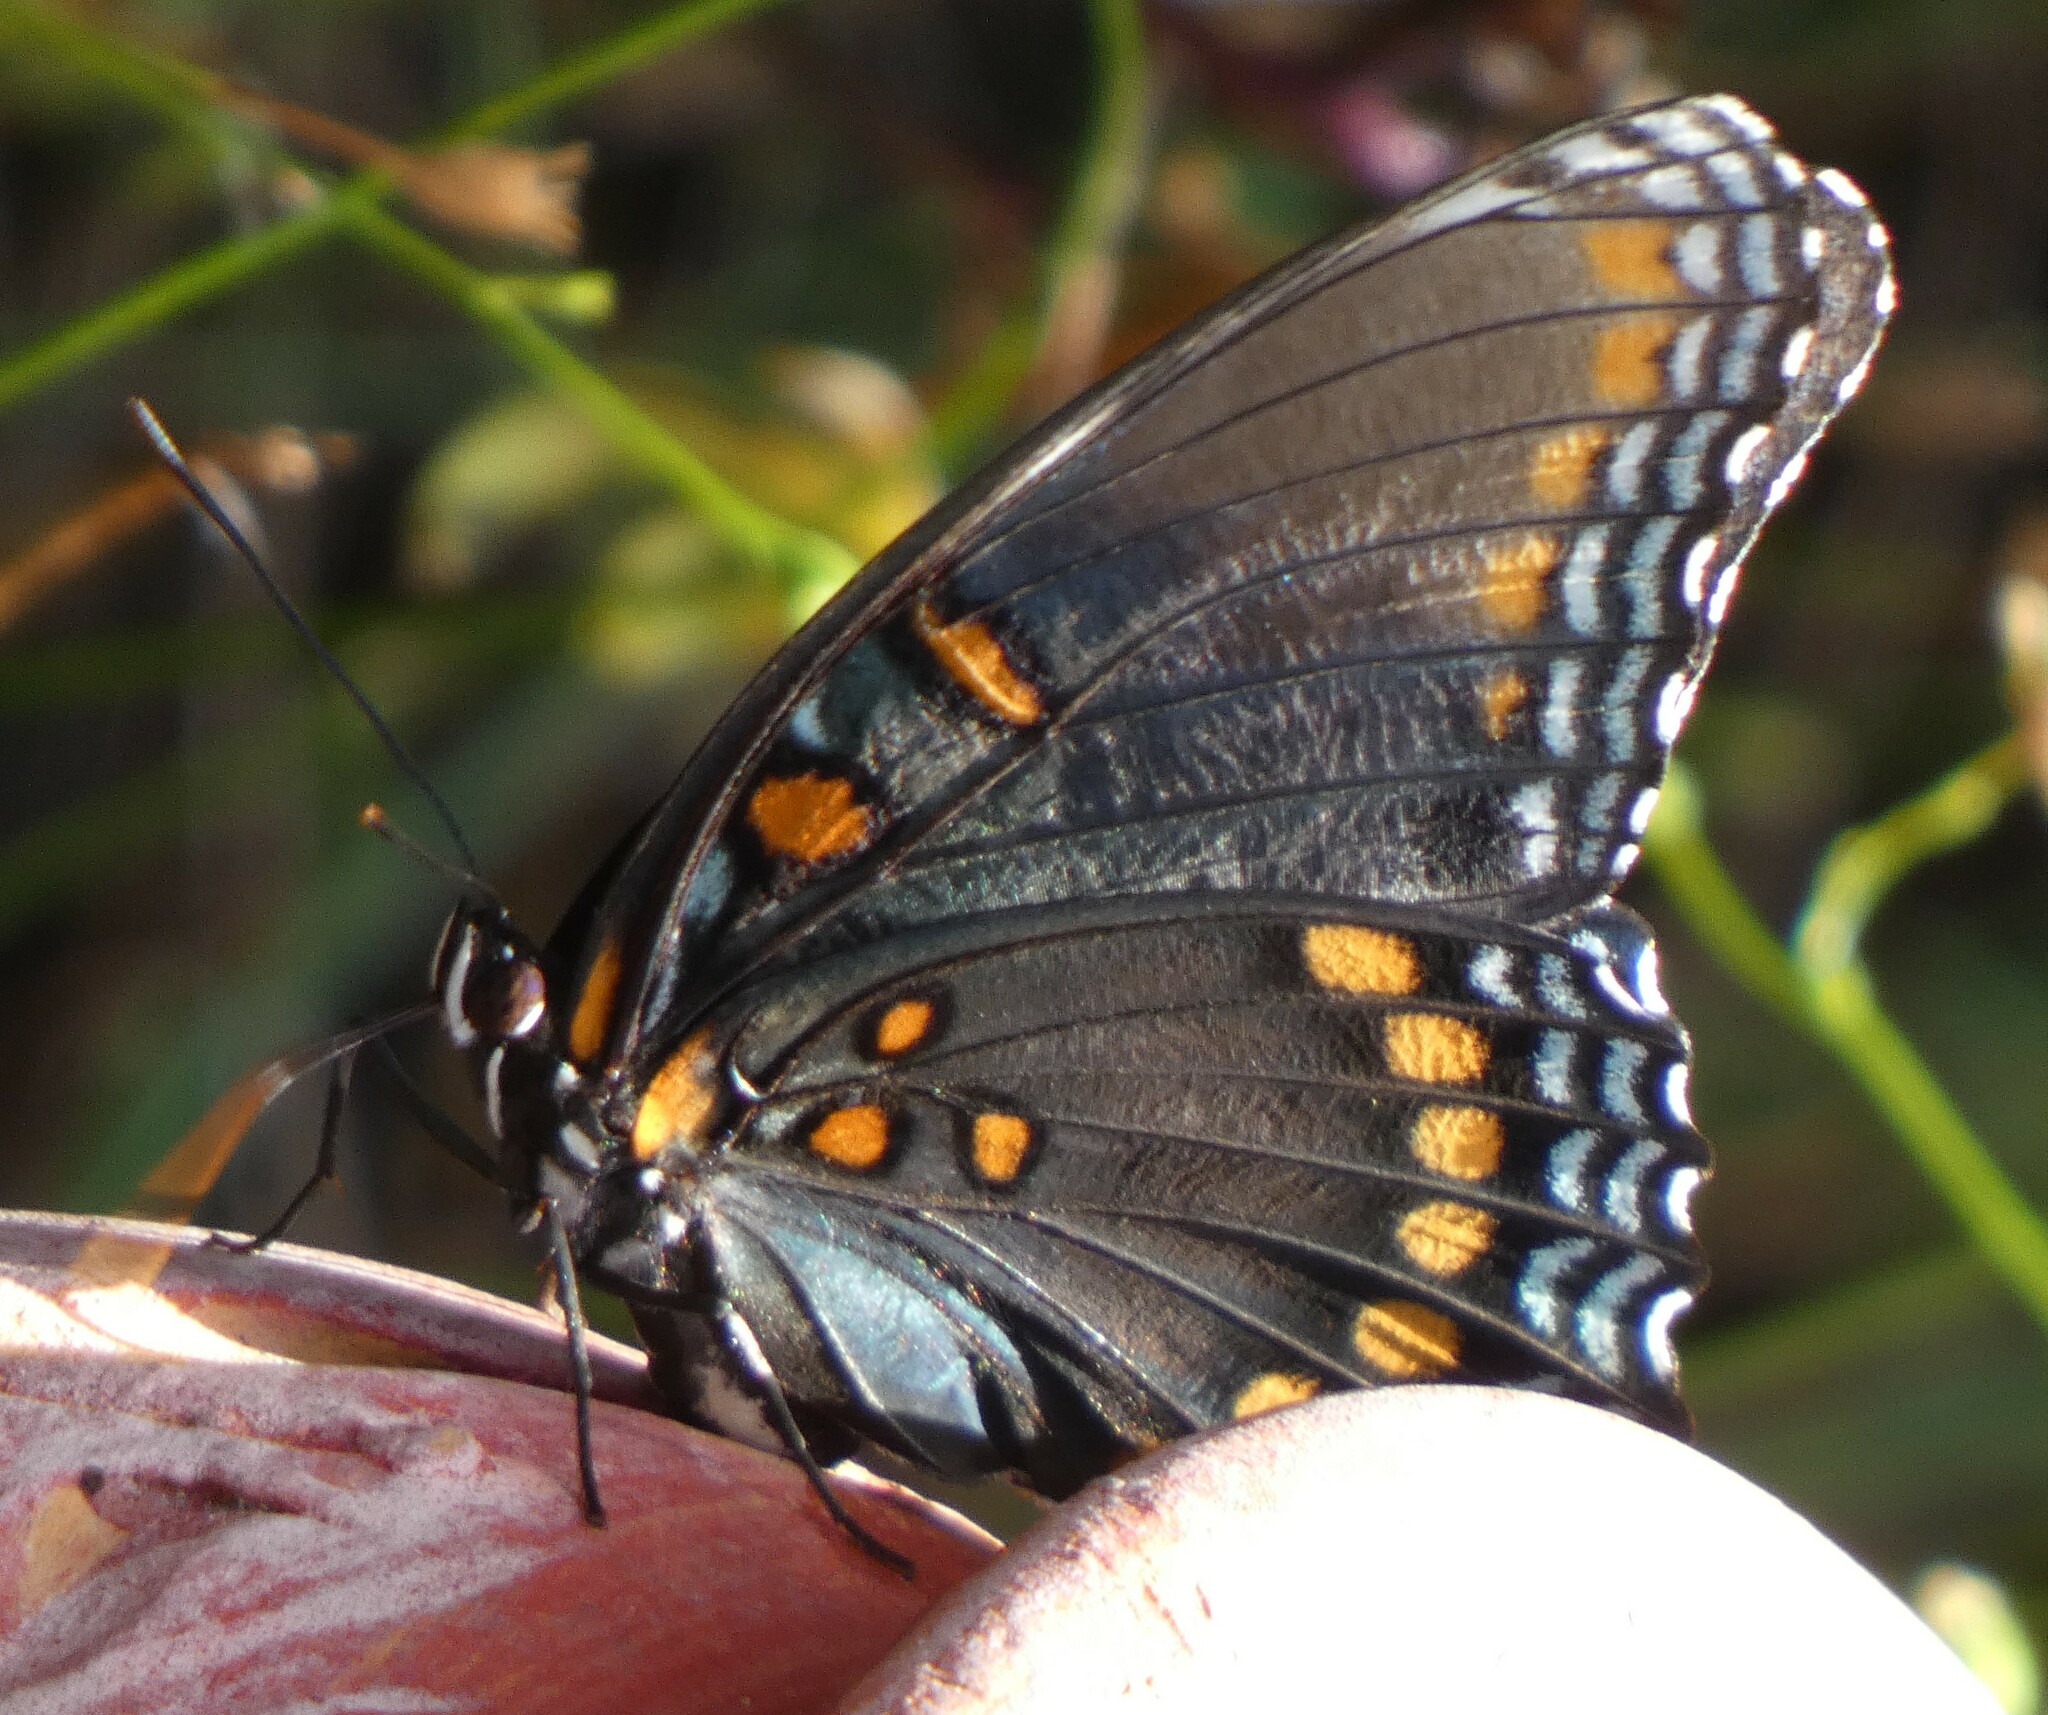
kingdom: Animalia
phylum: Arthropoda
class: Insecta
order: Lepidoptera
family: Nymphalidae
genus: Limenitis
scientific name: Limenitis astyanax
